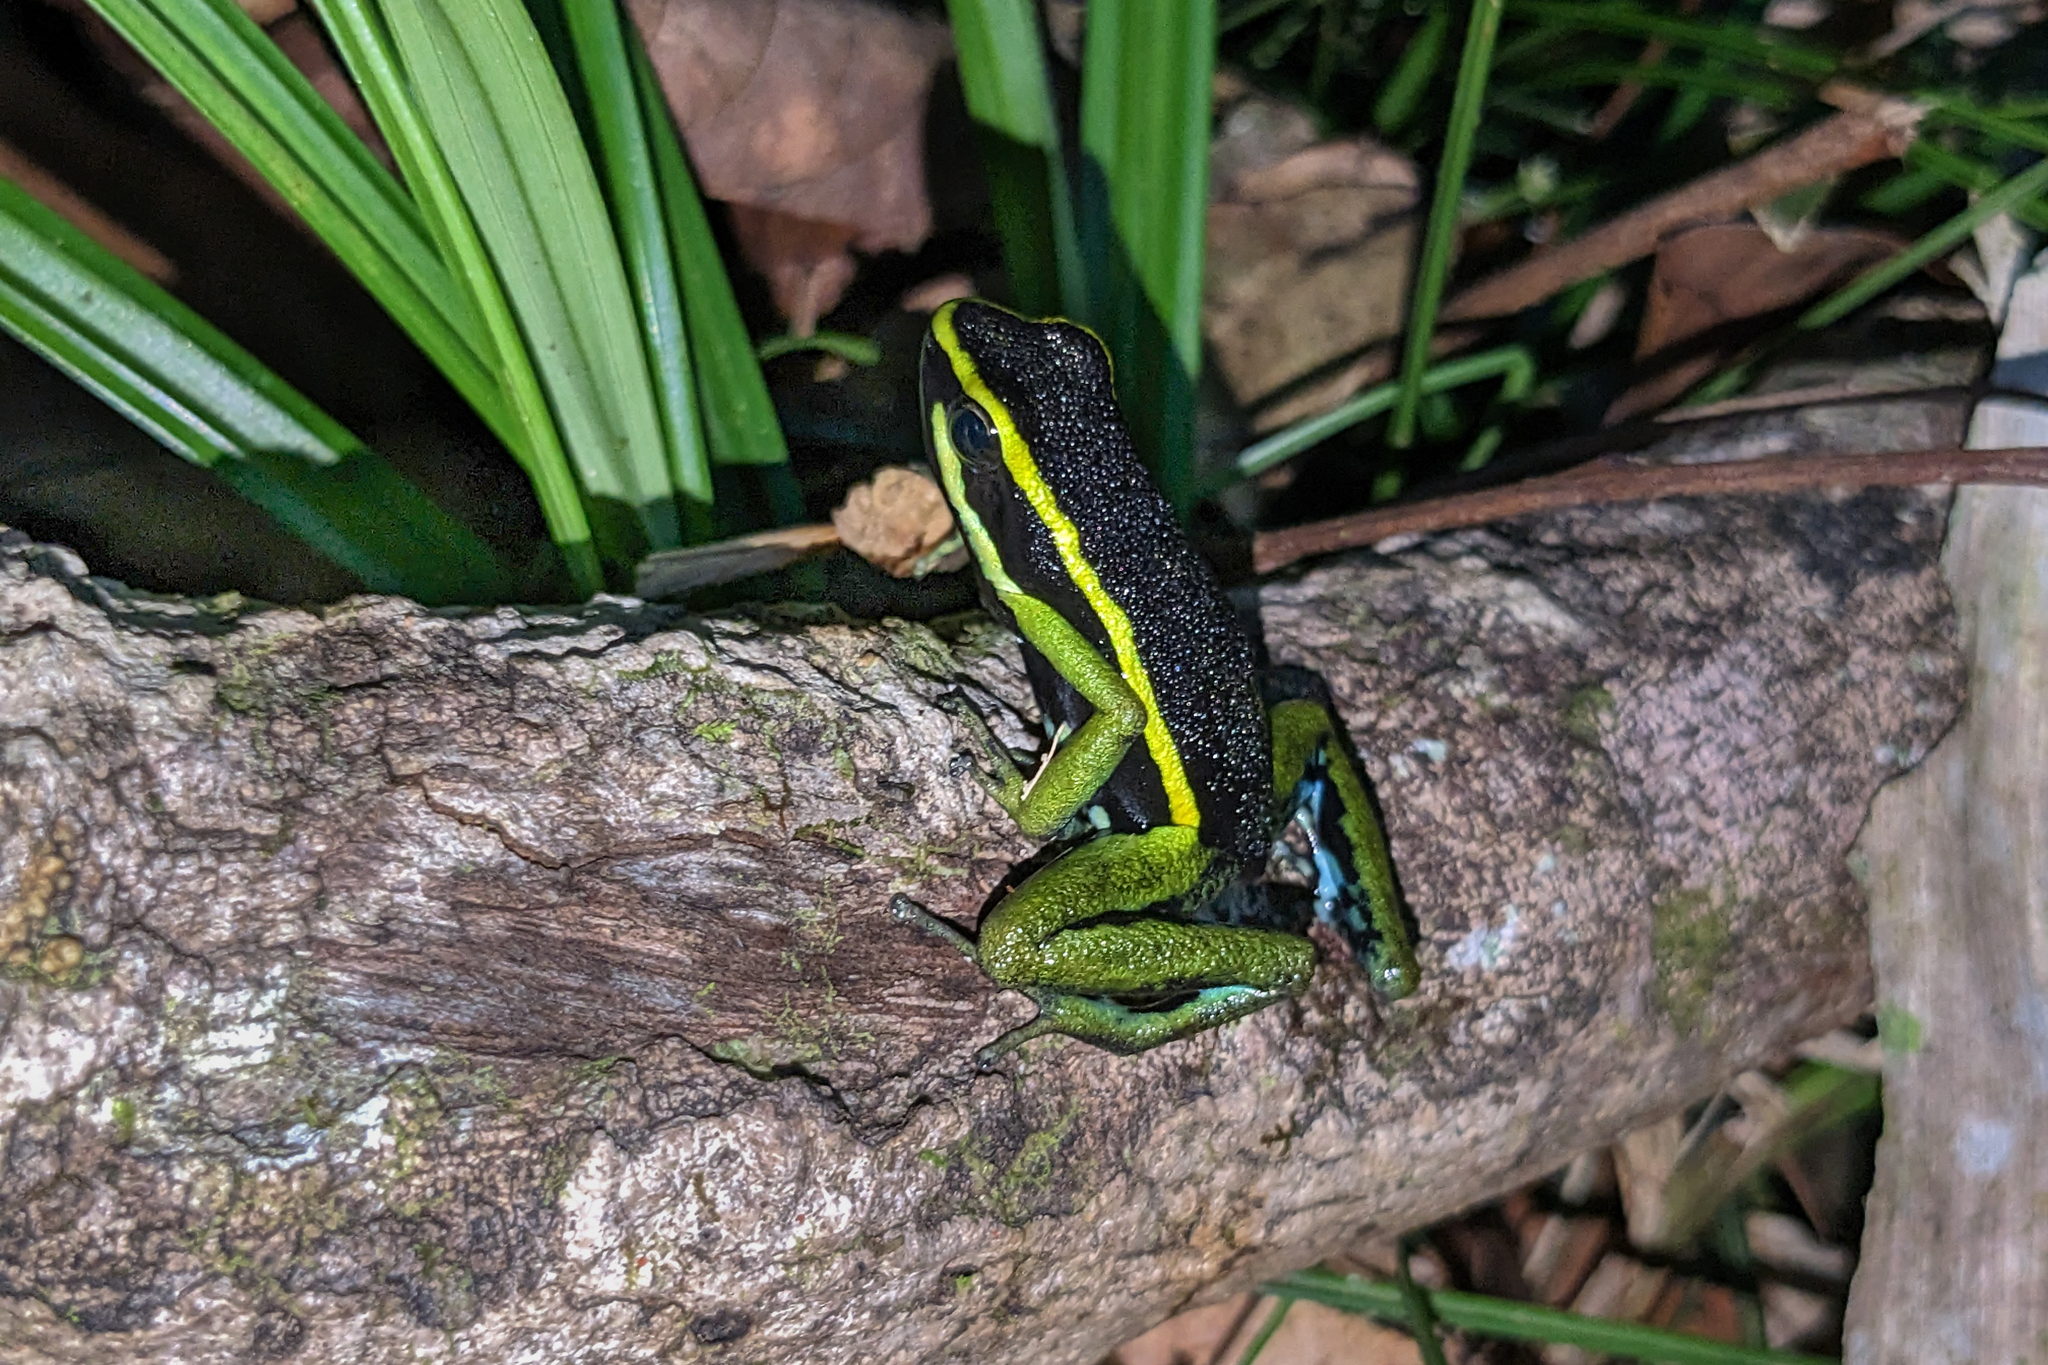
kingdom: Animalia
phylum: Chordata
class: Amphibia
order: Anura
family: Dendrobatidae
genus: Ameerega
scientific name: Ameerega trivittata
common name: Three-striped arrow-poison frog
